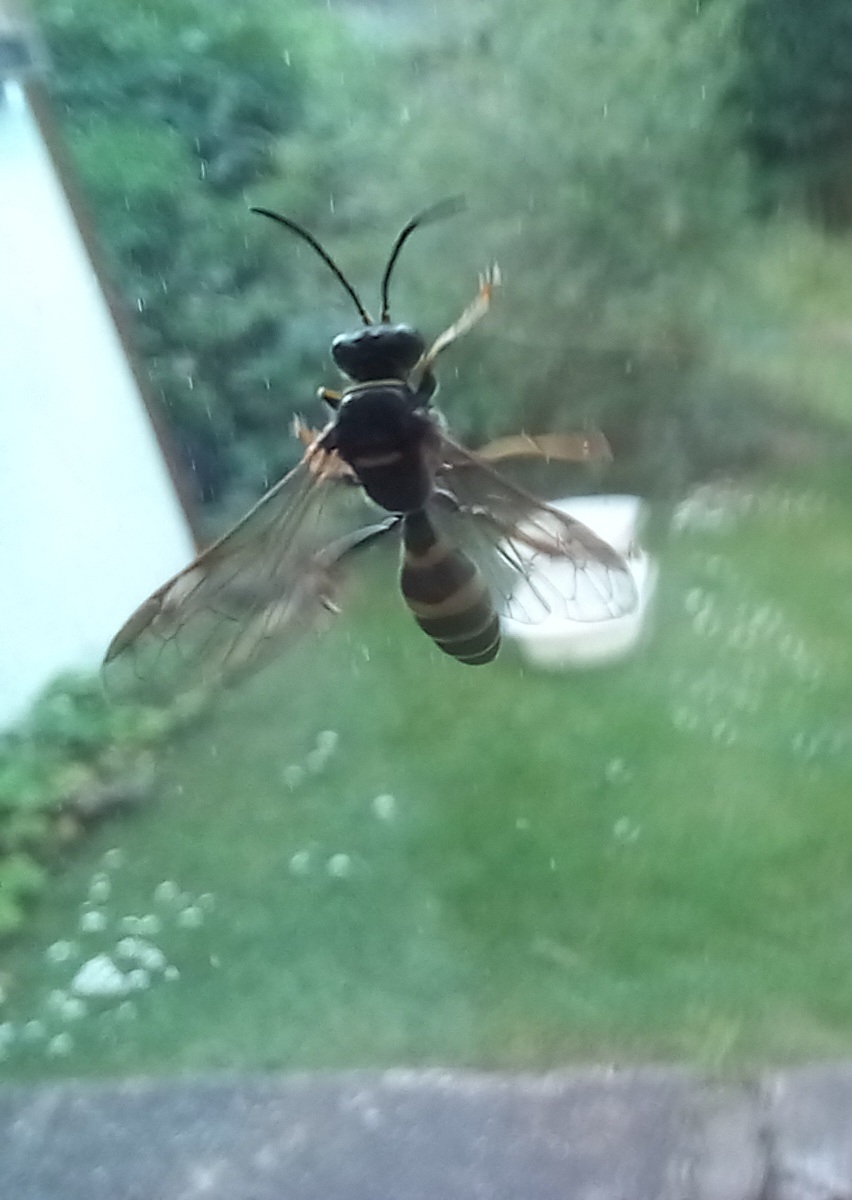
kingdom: Animalia
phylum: Arthropoda
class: Insecta
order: Hymenoptera
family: Crabronidae
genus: Gorytes
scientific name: Gorytes laticinctus
